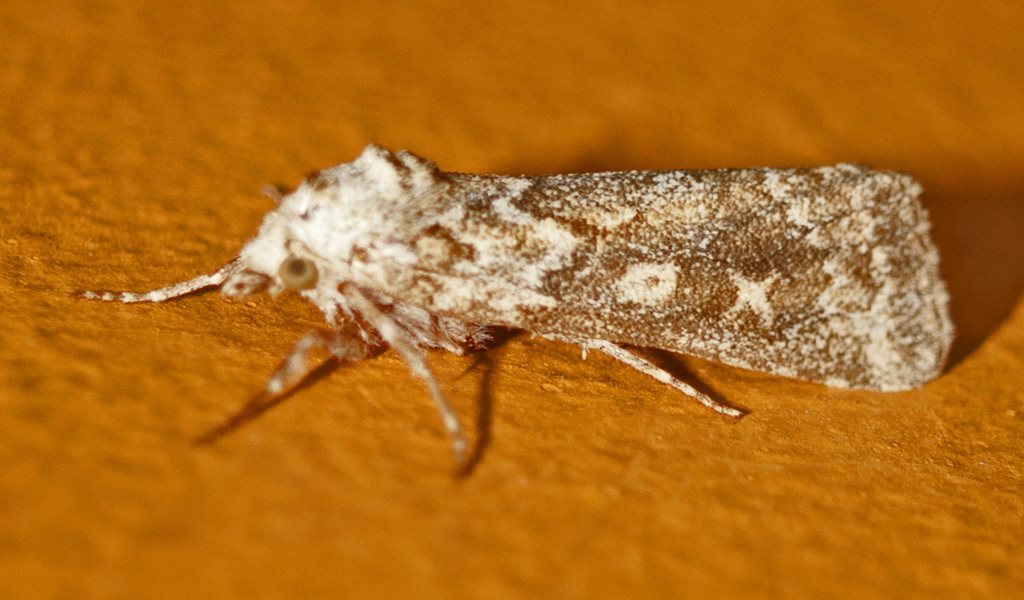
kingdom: Animalia
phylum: Arthropoda
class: Insecta
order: Lepidoptera
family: Noctuidae
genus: Eremochroa
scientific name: Eremochroa alphitias
